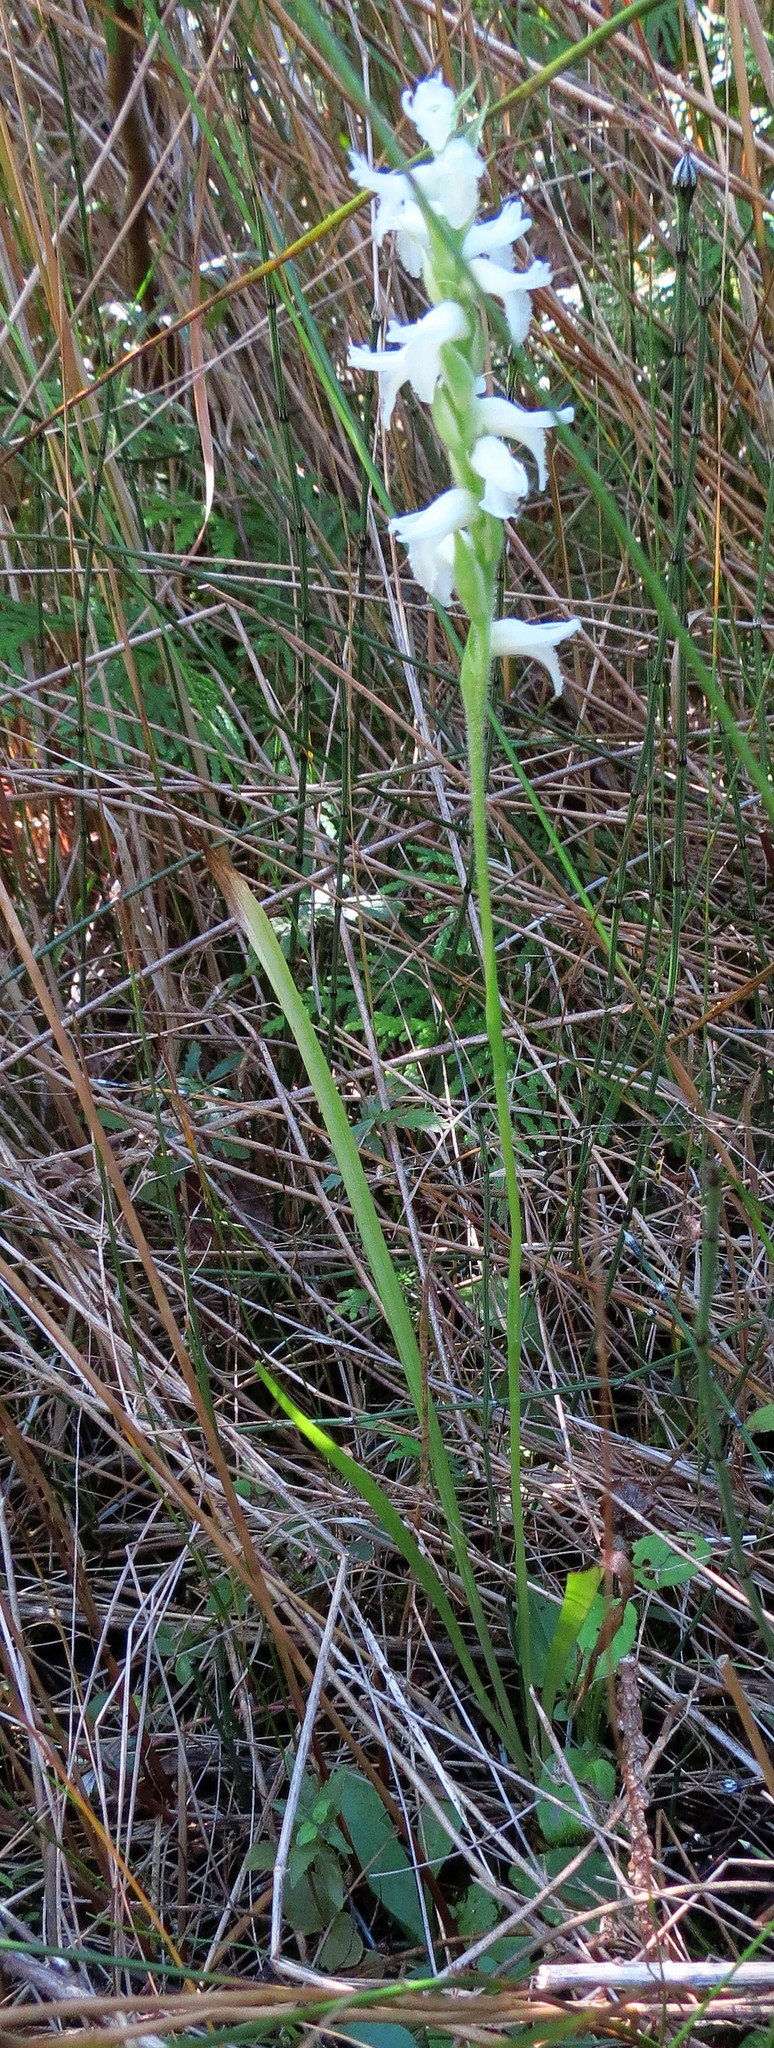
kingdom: Plantae
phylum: Tracheophyta
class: Liliopsida
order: Asparagales
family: Orchidaceae
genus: Spiranthes
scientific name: Spiranthes incurva
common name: Sphinx ladies'-tresses
